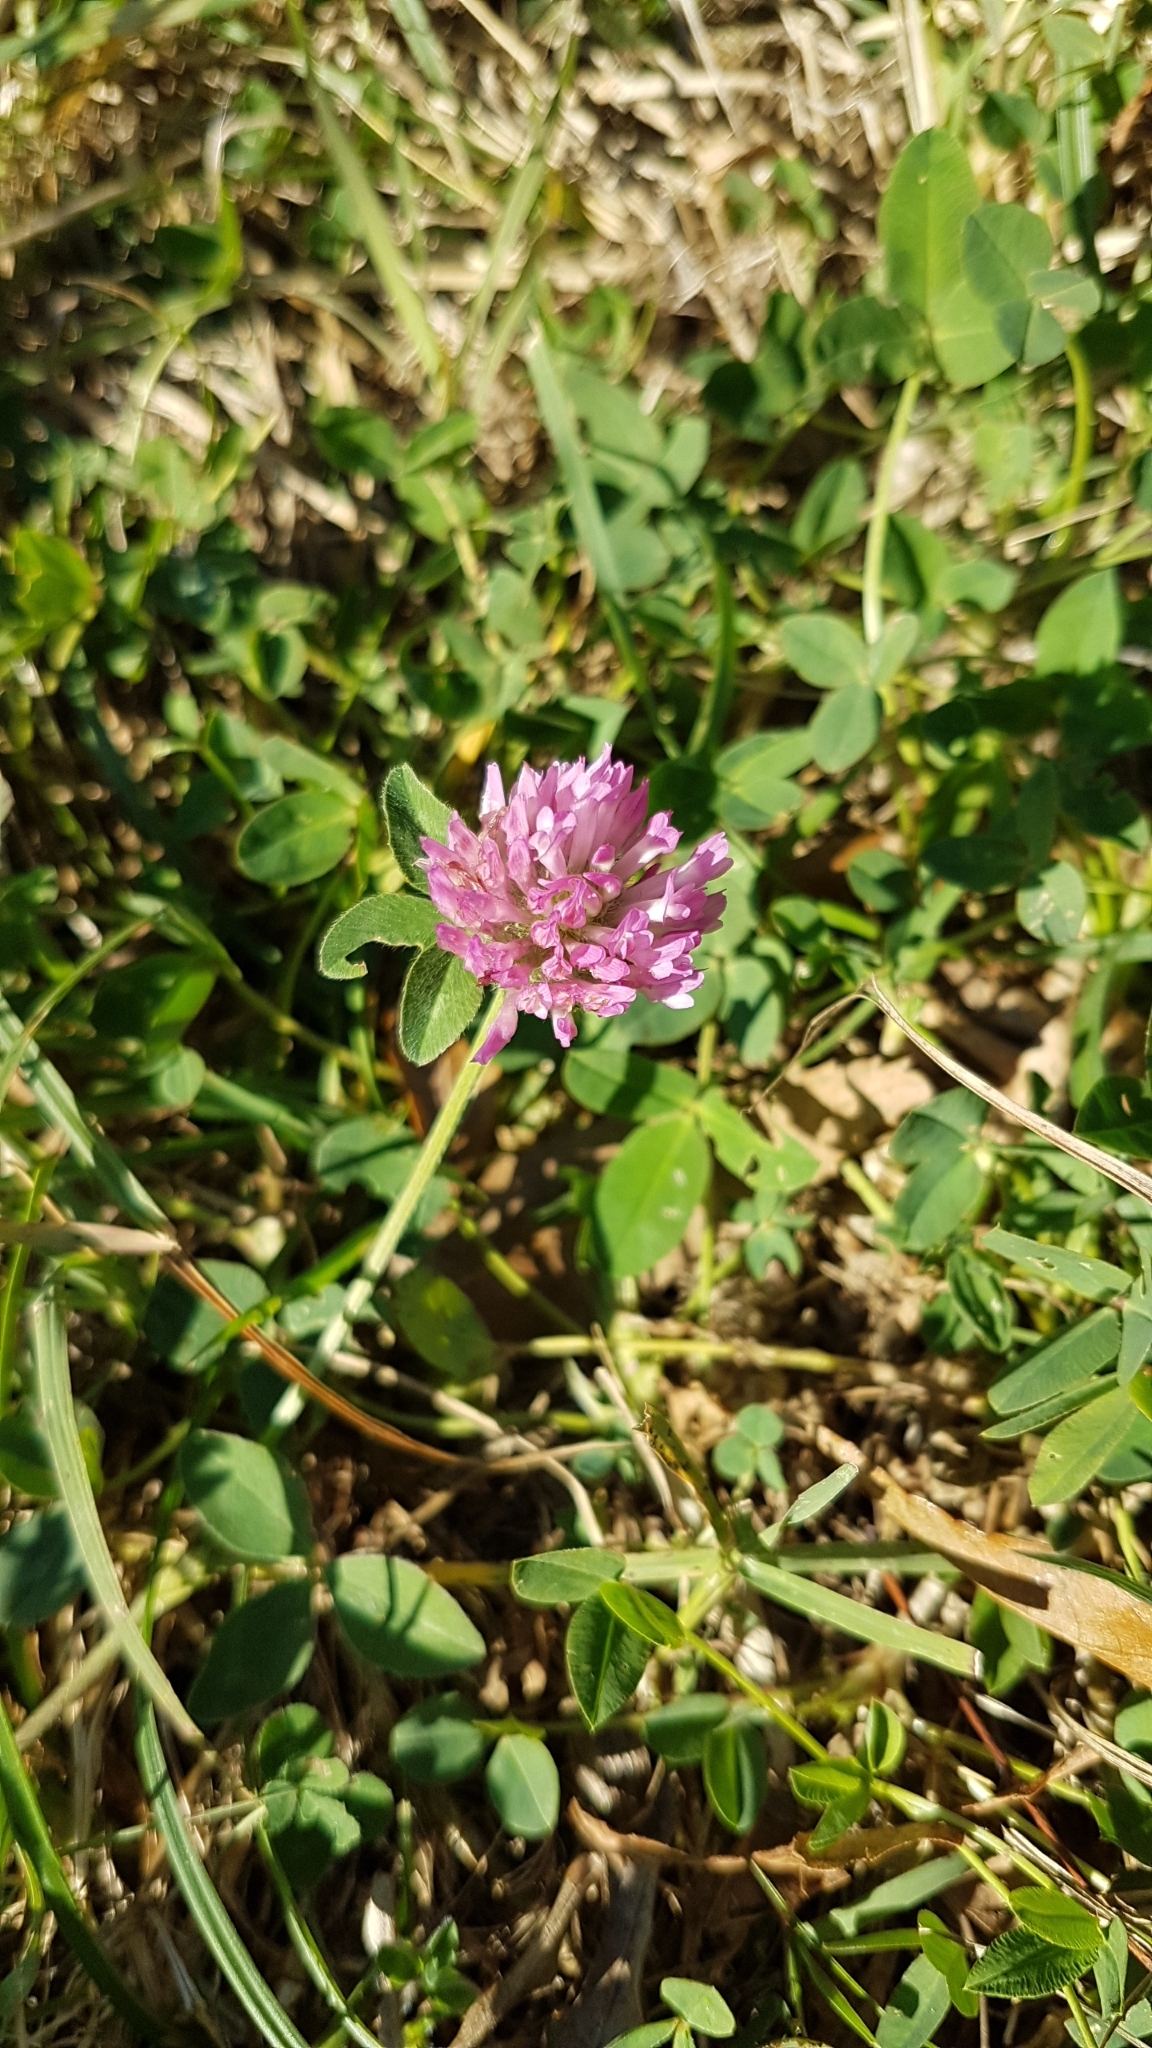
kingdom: Plantae
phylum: Tracheophyta
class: Magnoliopsida
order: Fabales
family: Fabaceae
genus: Trifolium
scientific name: Trifolium pratense
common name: Red clover
